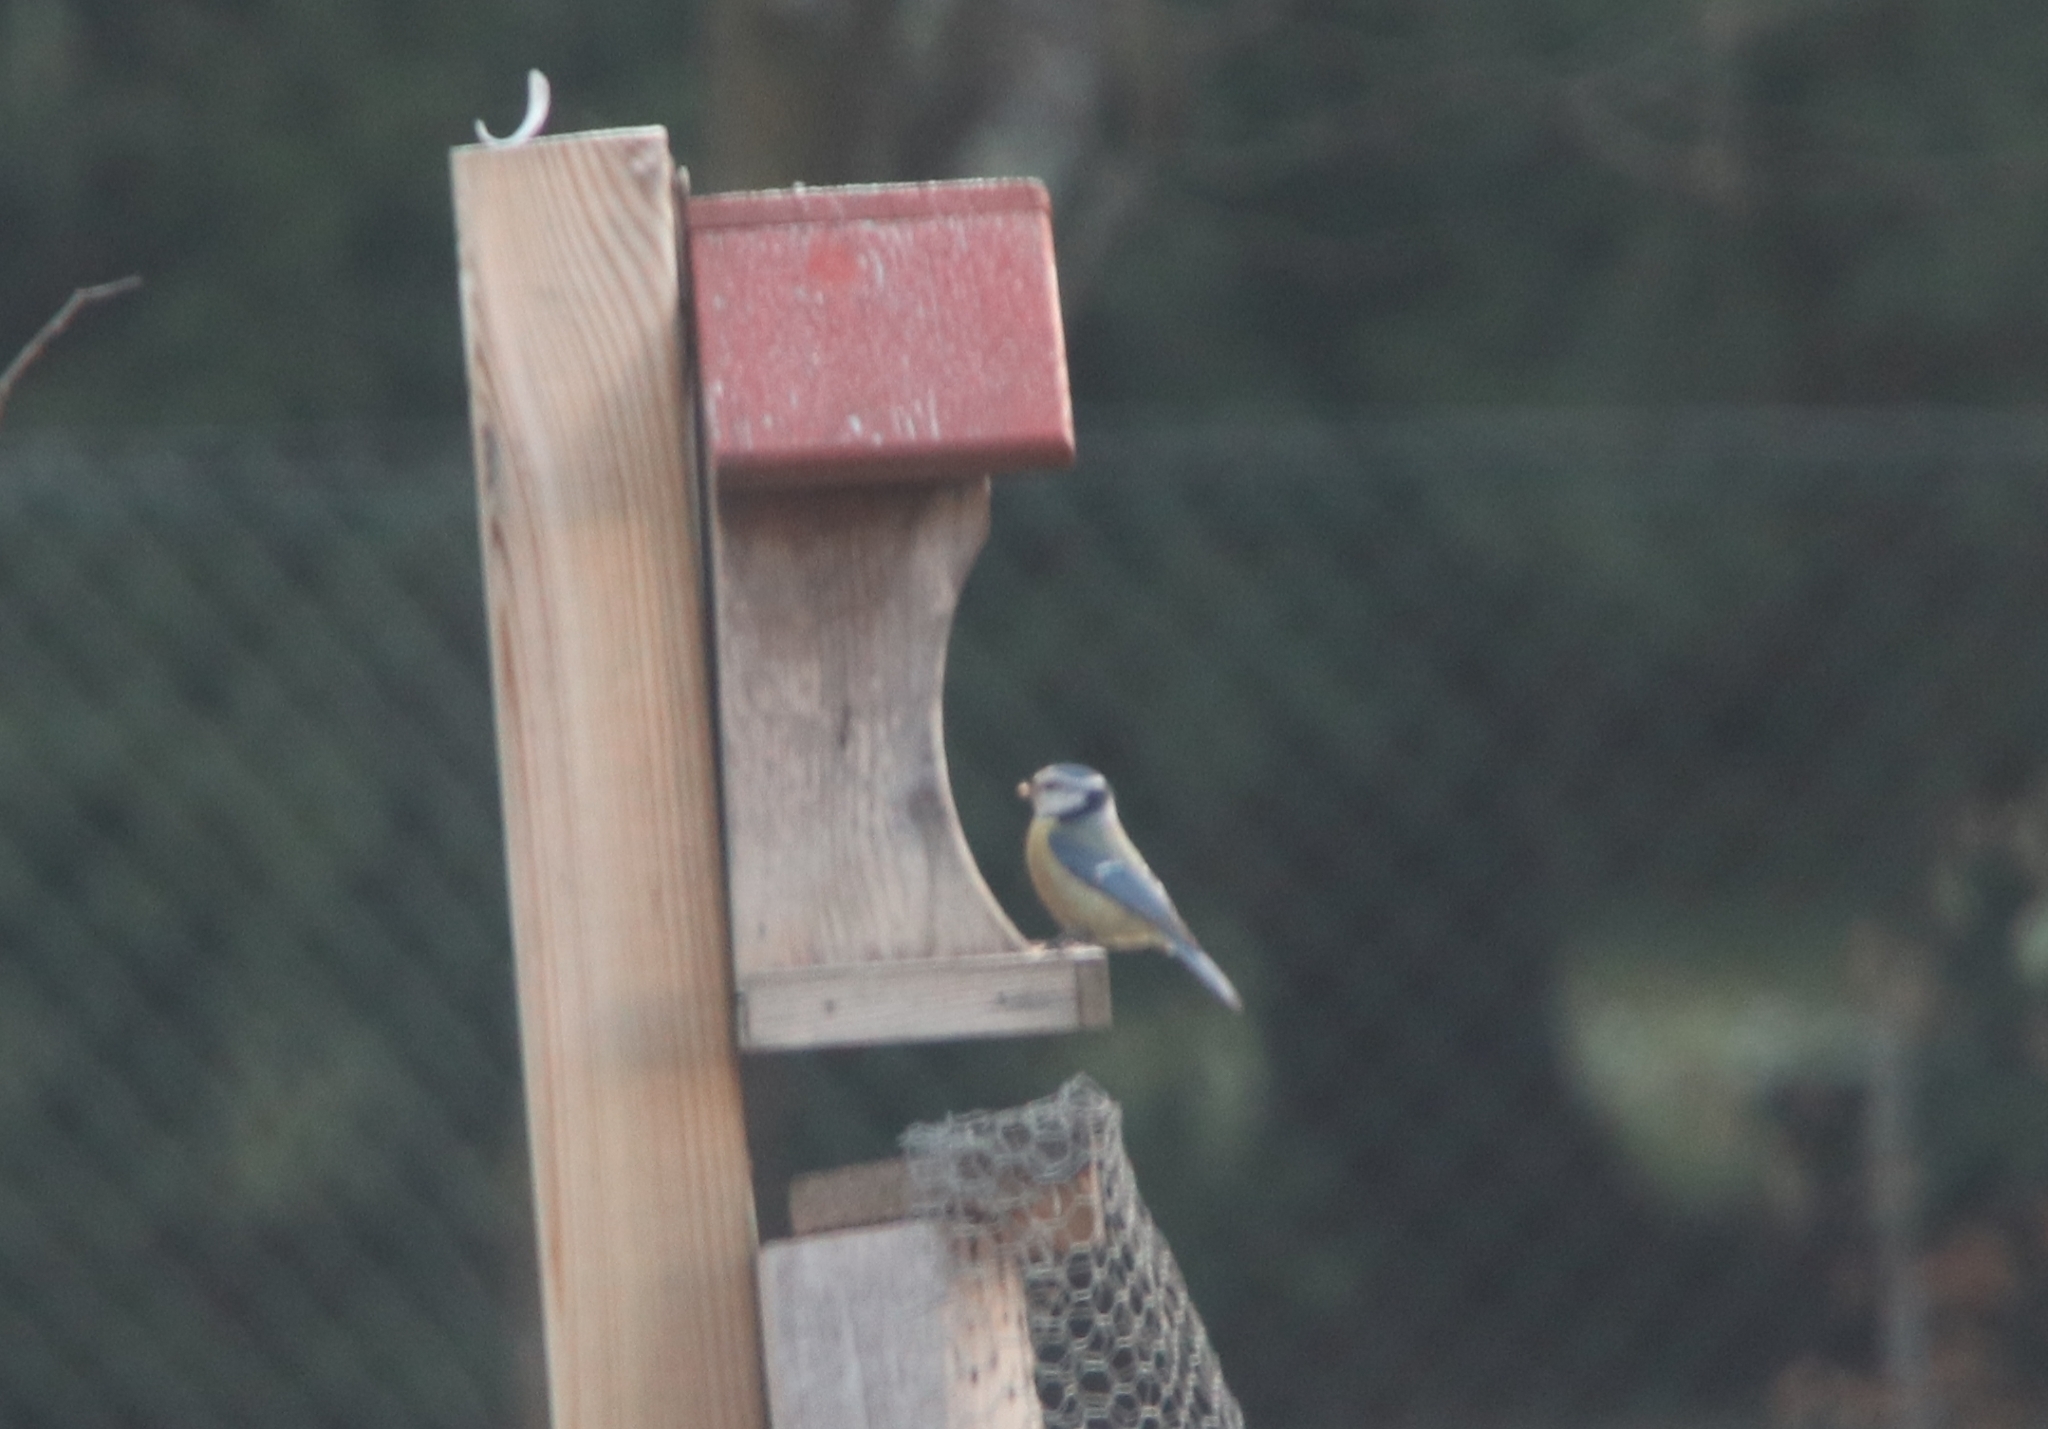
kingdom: Animalia
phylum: Chordata
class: Aves
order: Passeriformes
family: Paridae
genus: Cyanistes
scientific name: Cyanistes caeruleus
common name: Eurasian blue tit
